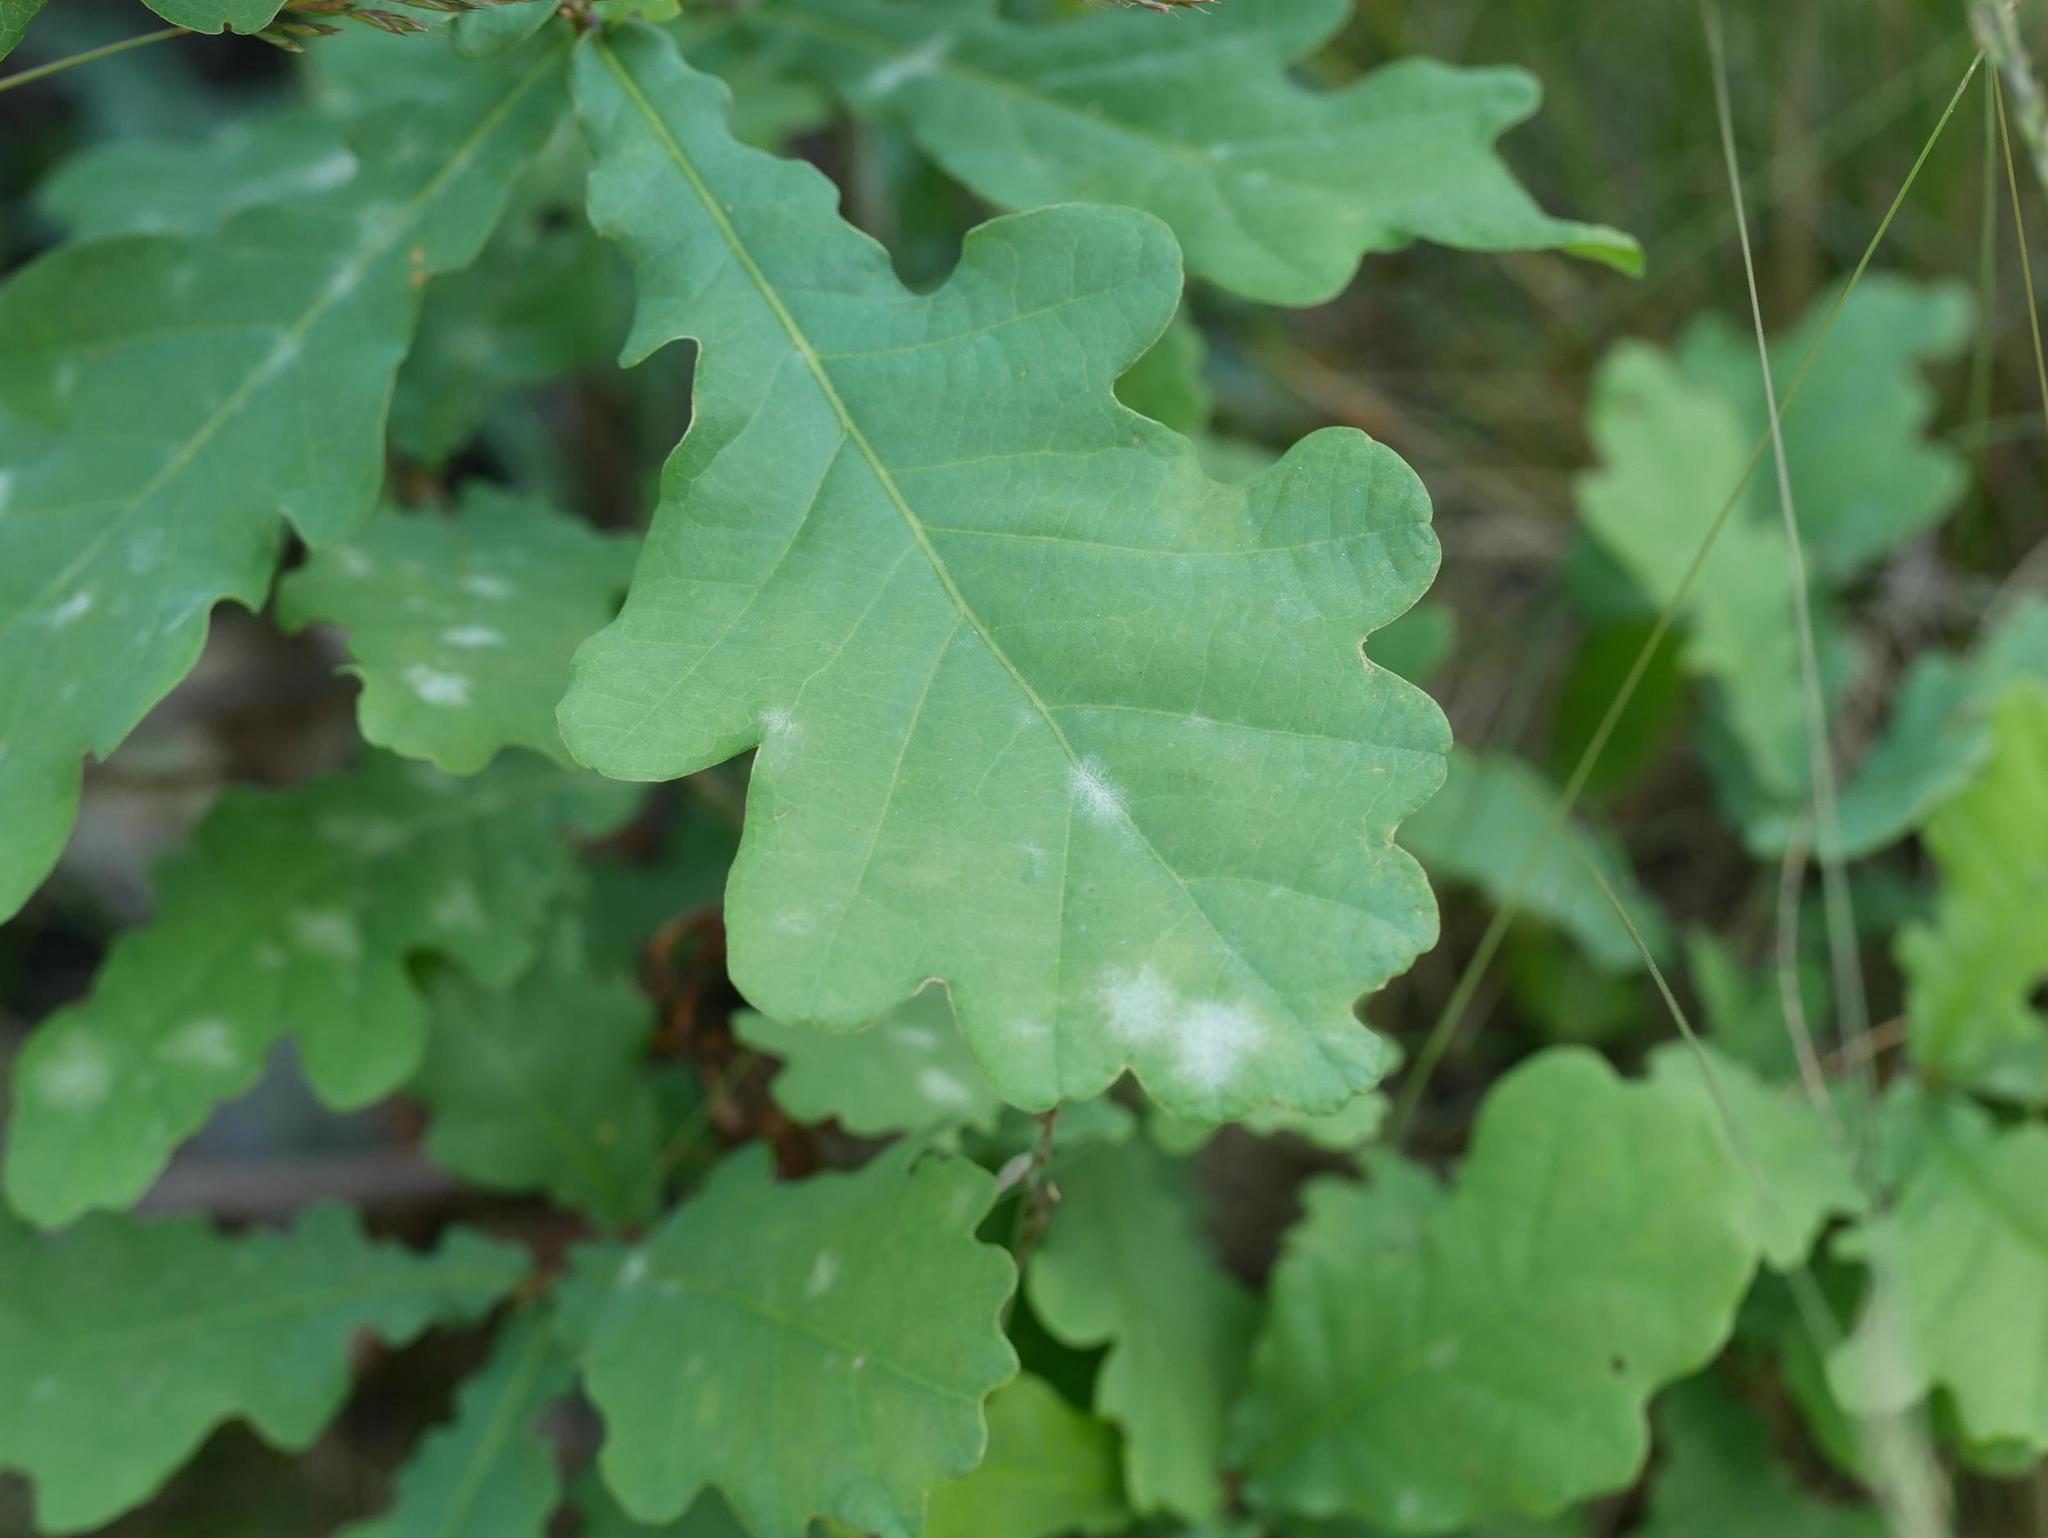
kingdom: Plantae
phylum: Tracheophyta
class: Magnoliopsida
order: Fagales
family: Fagaceae
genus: Quercus
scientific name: Quercus robur
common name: Pedunculate oak
